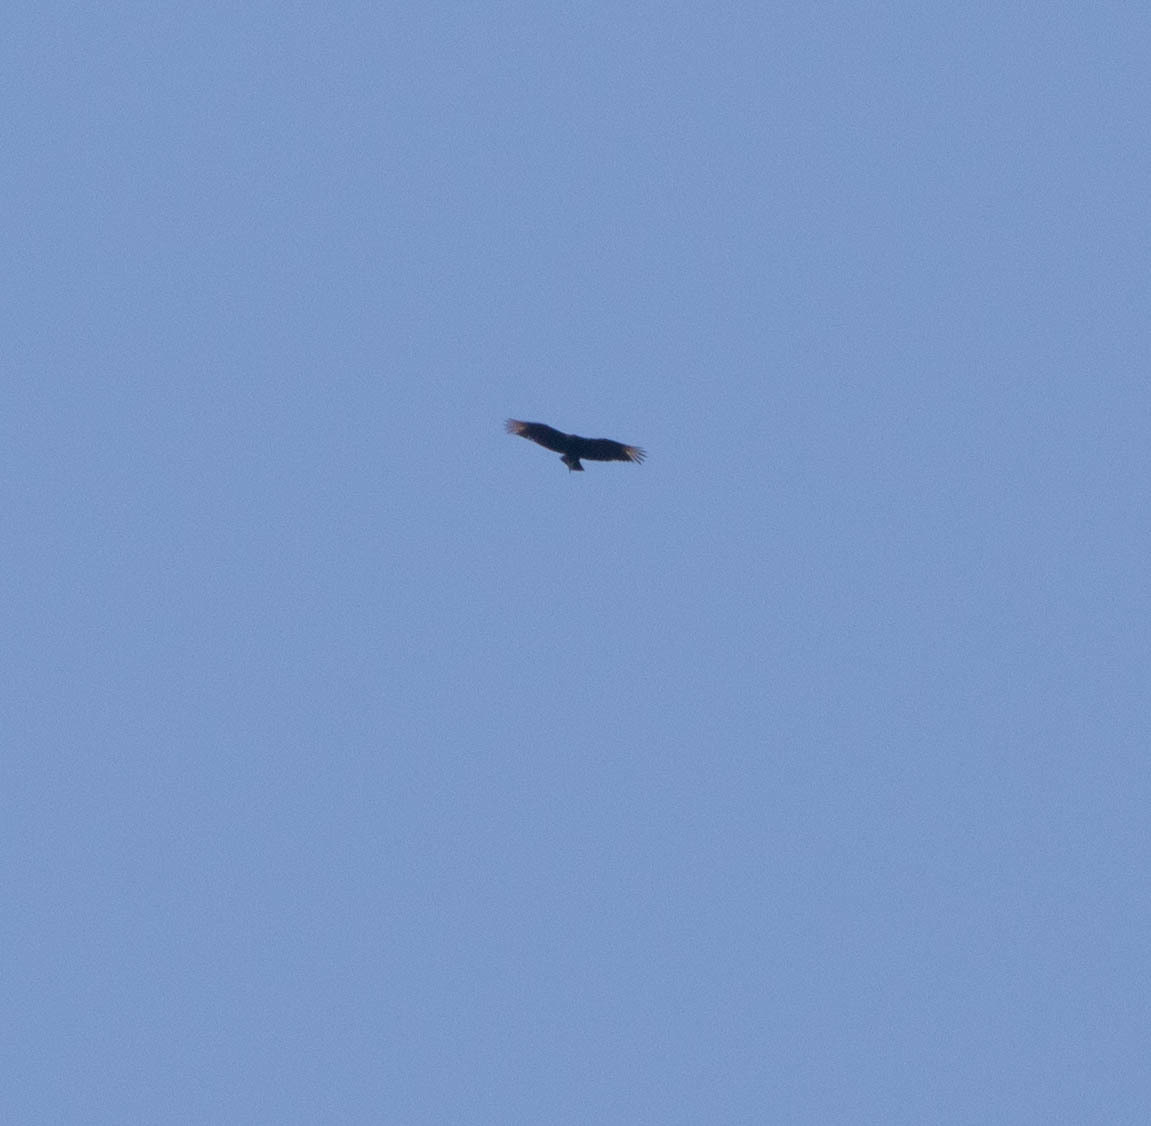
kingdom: Animalia
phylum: Chordata
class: Aves
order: Accipitriformes
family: Cathartidae
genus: Coragyps
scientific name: Coragyps atratus
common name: Black vulture
